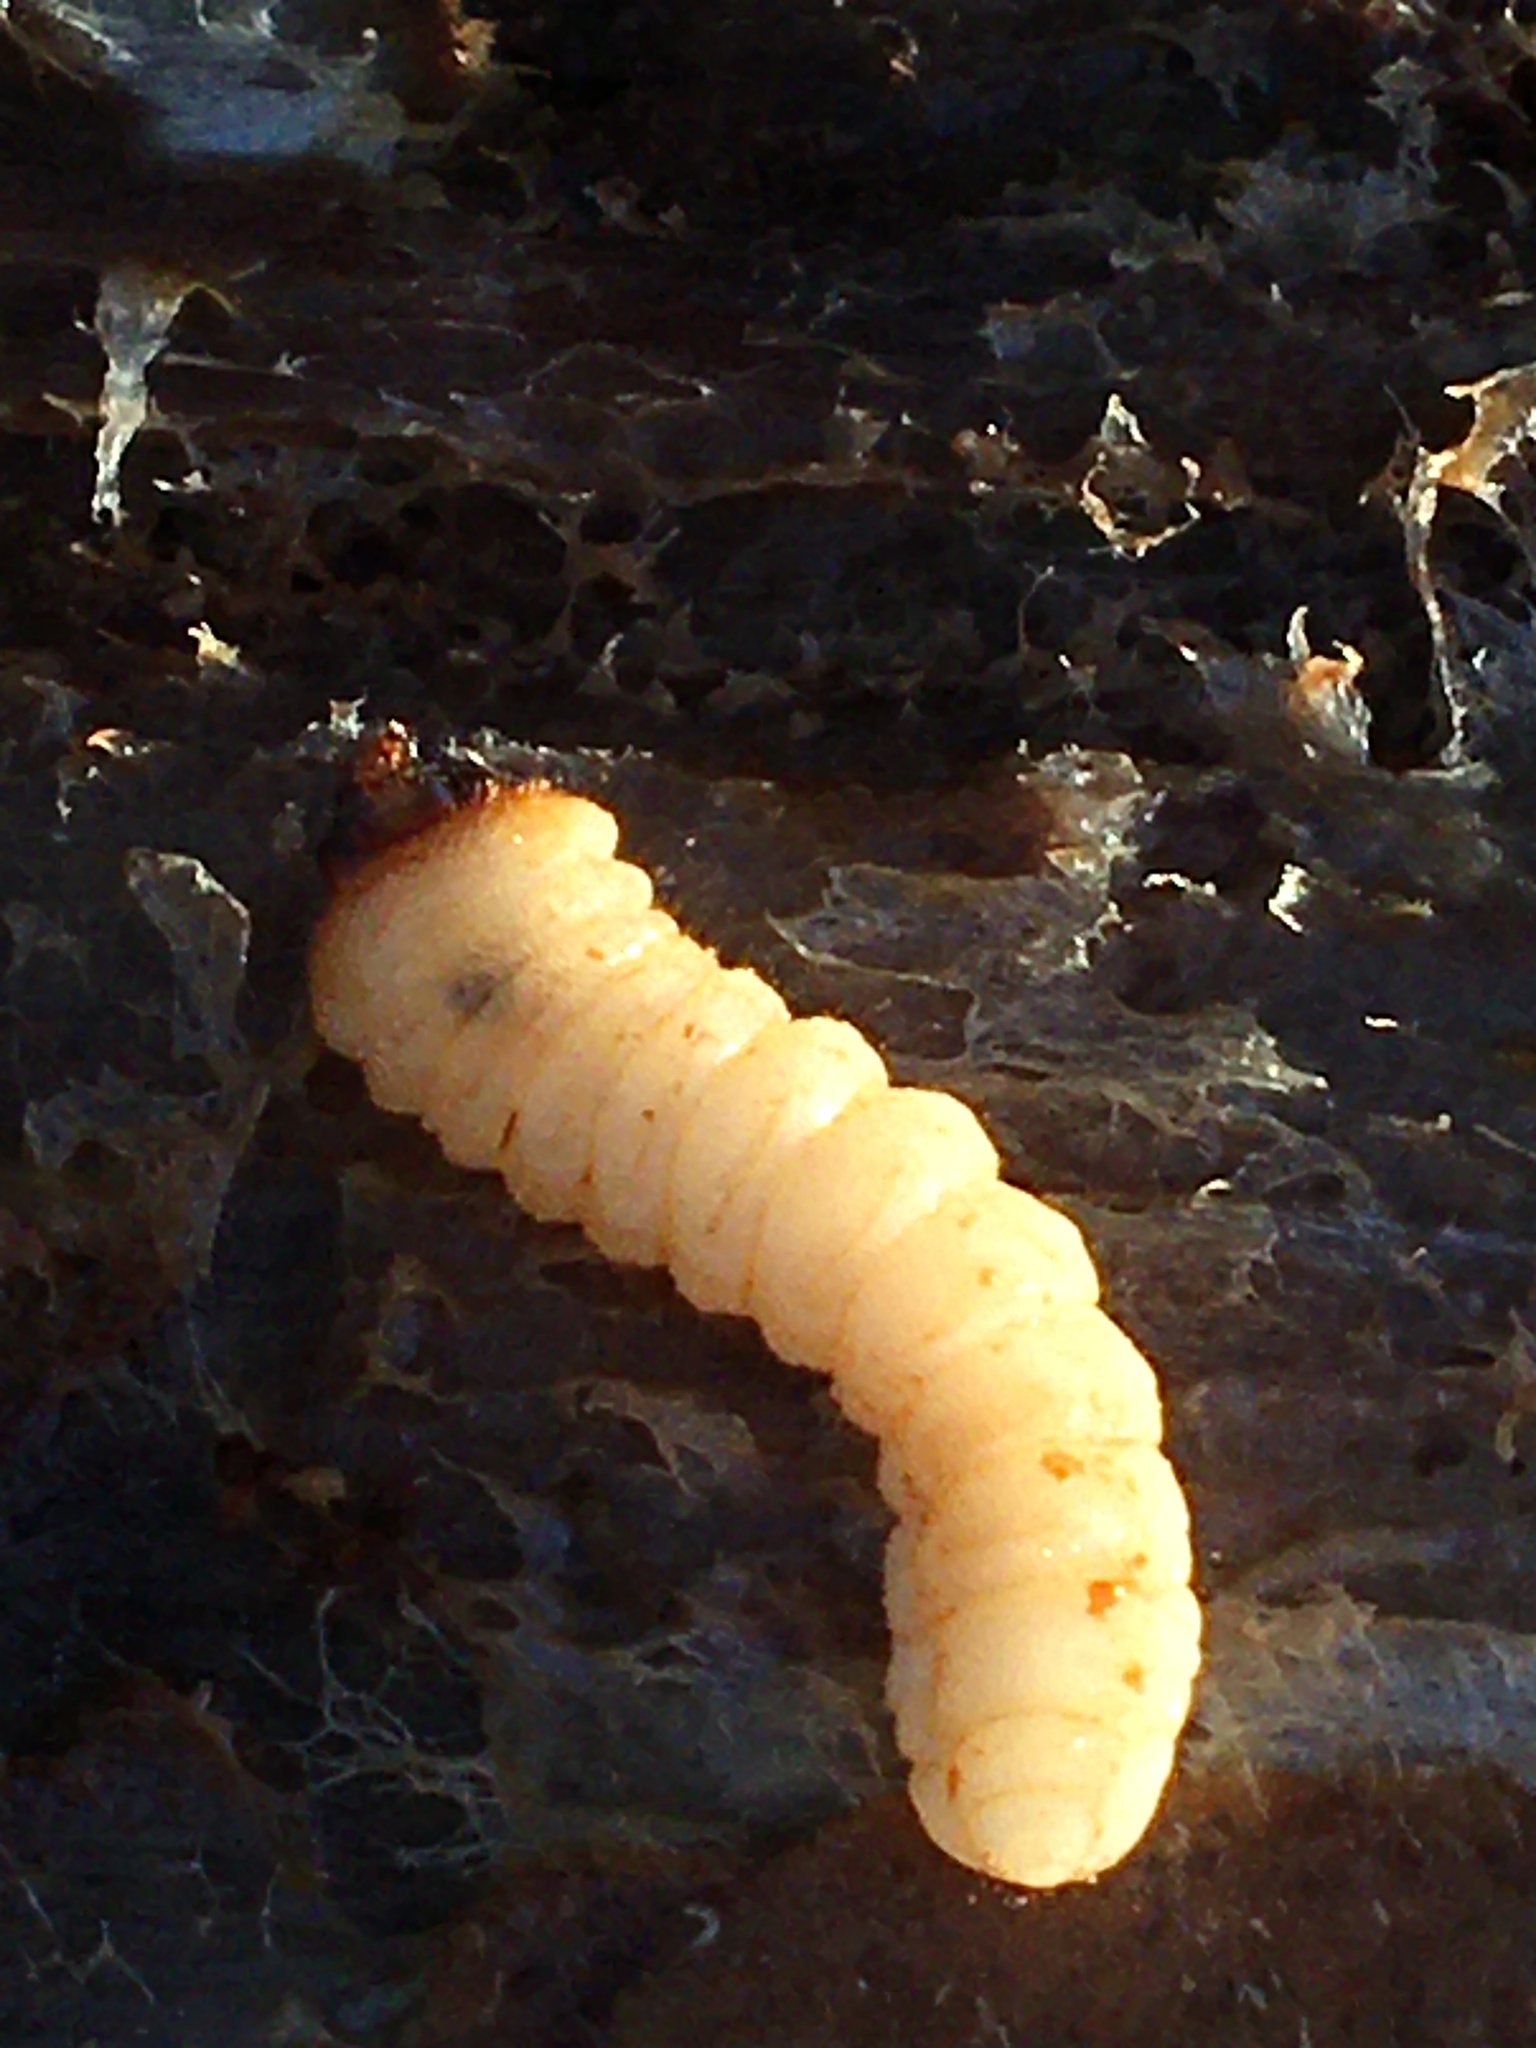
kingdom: Animalia
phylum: Arthropoda
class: Insecta
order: Coleoptera
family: Cerambycidae
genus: Rhagium
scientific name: Rhagium inquisitor
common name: Ribbed pine borer
